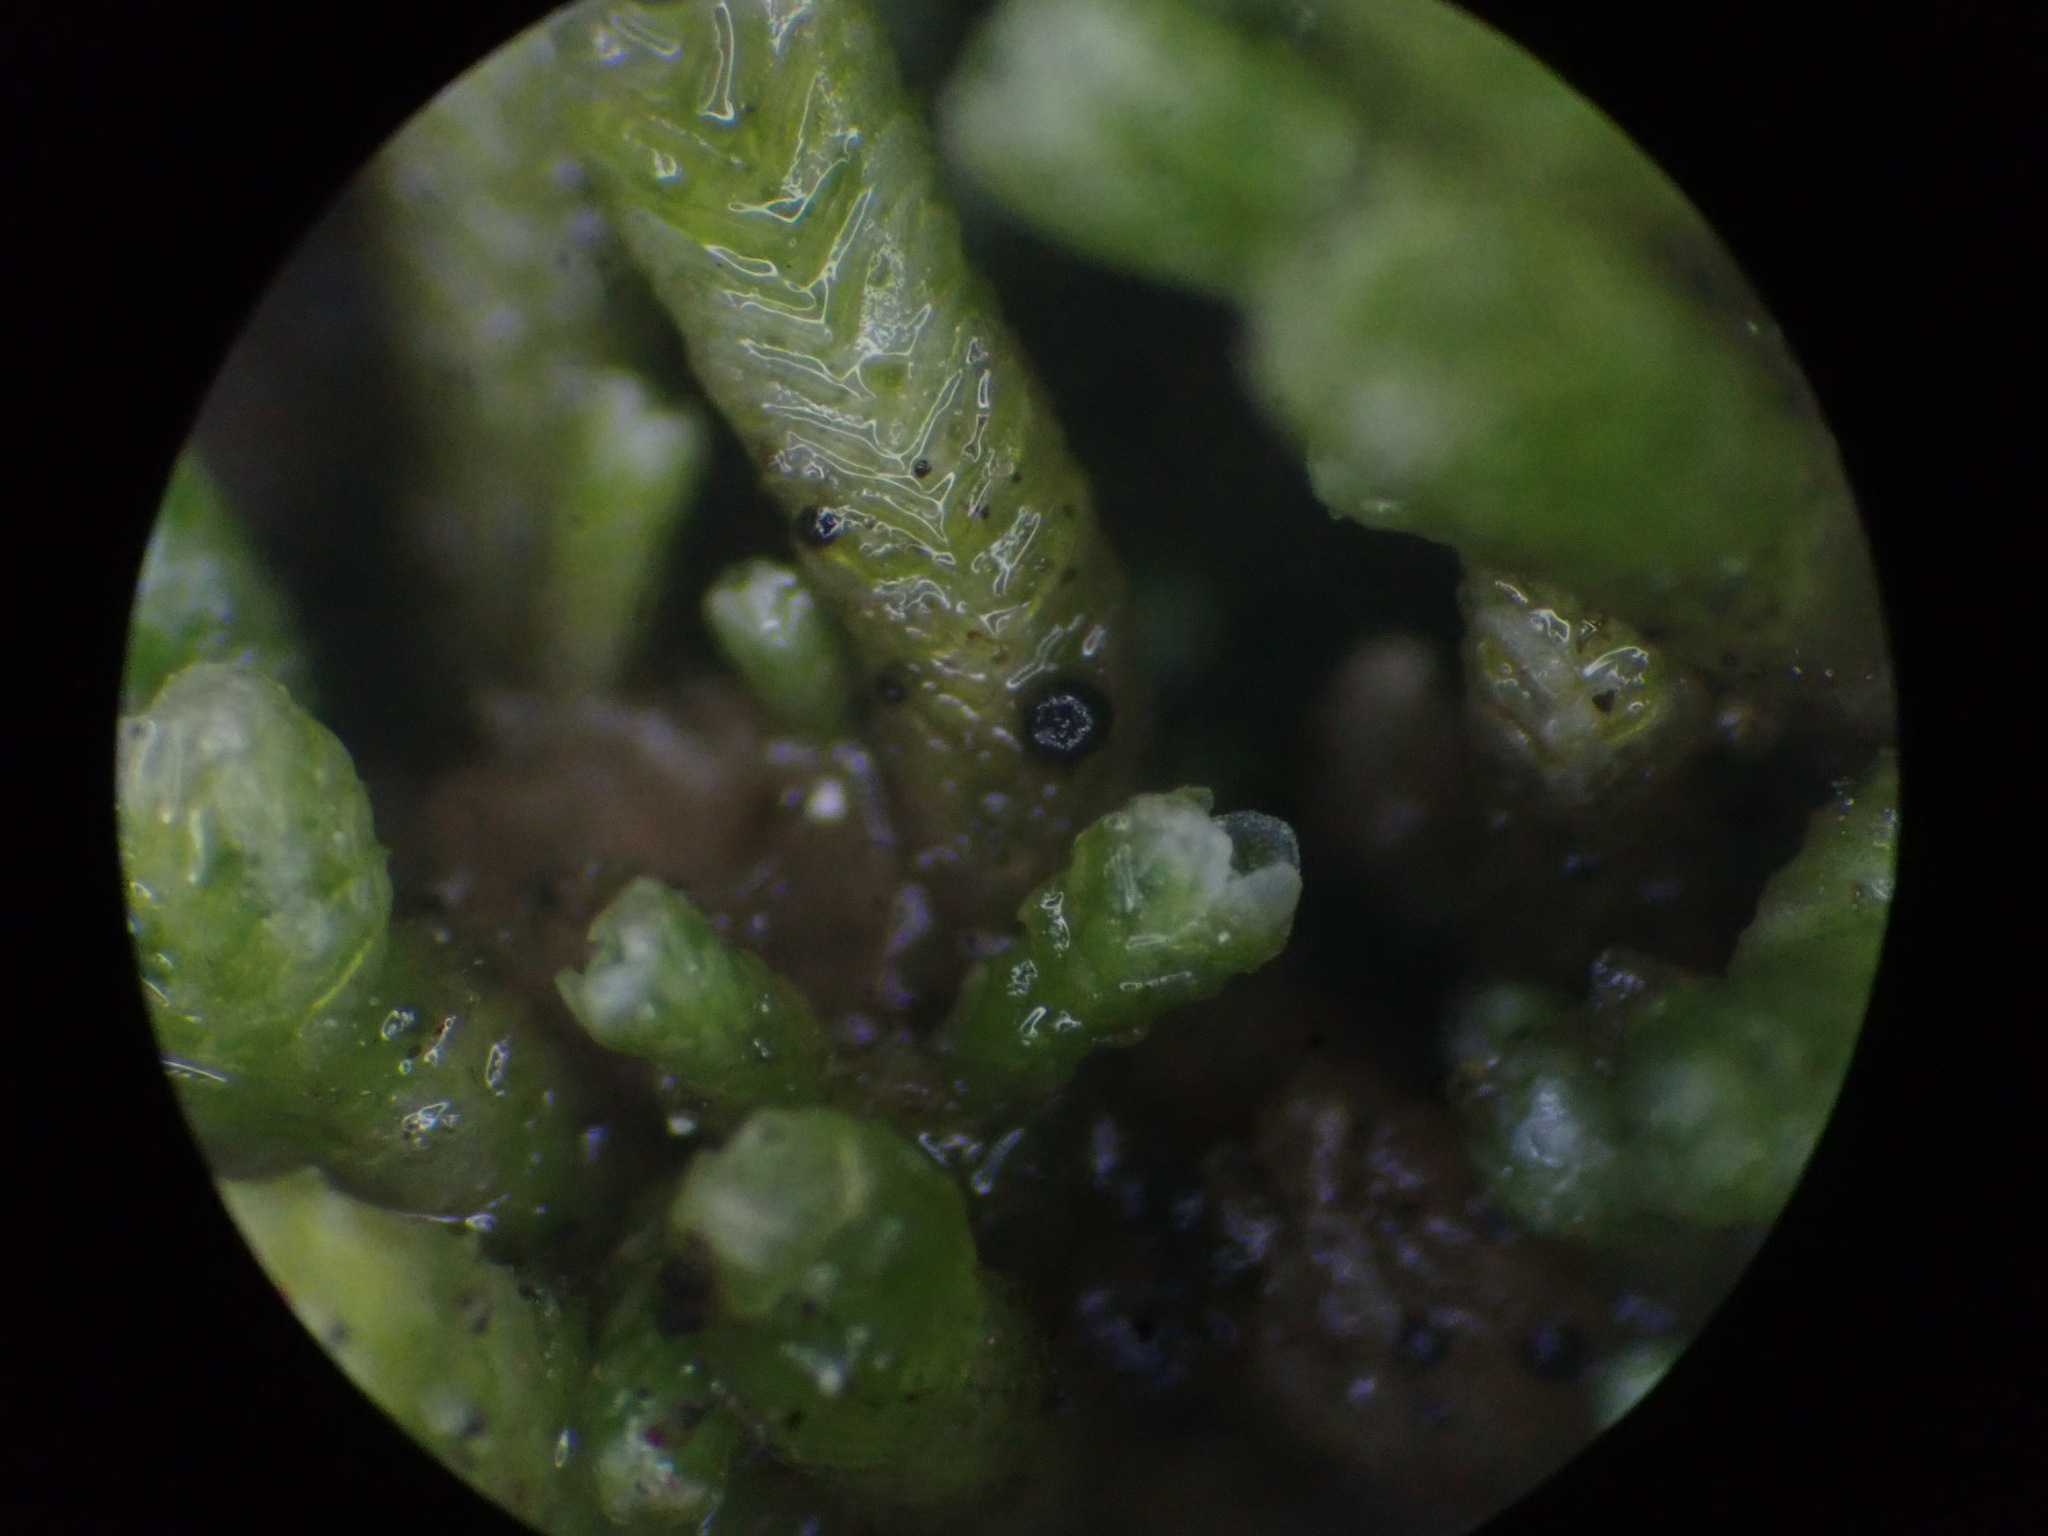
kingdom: Fungi
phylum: Ascomycota
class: Lecanoromycetes
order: Lecanorales
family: Dactylosporaceae
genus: Dactylospora
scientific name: Dactylospora scapanaria
